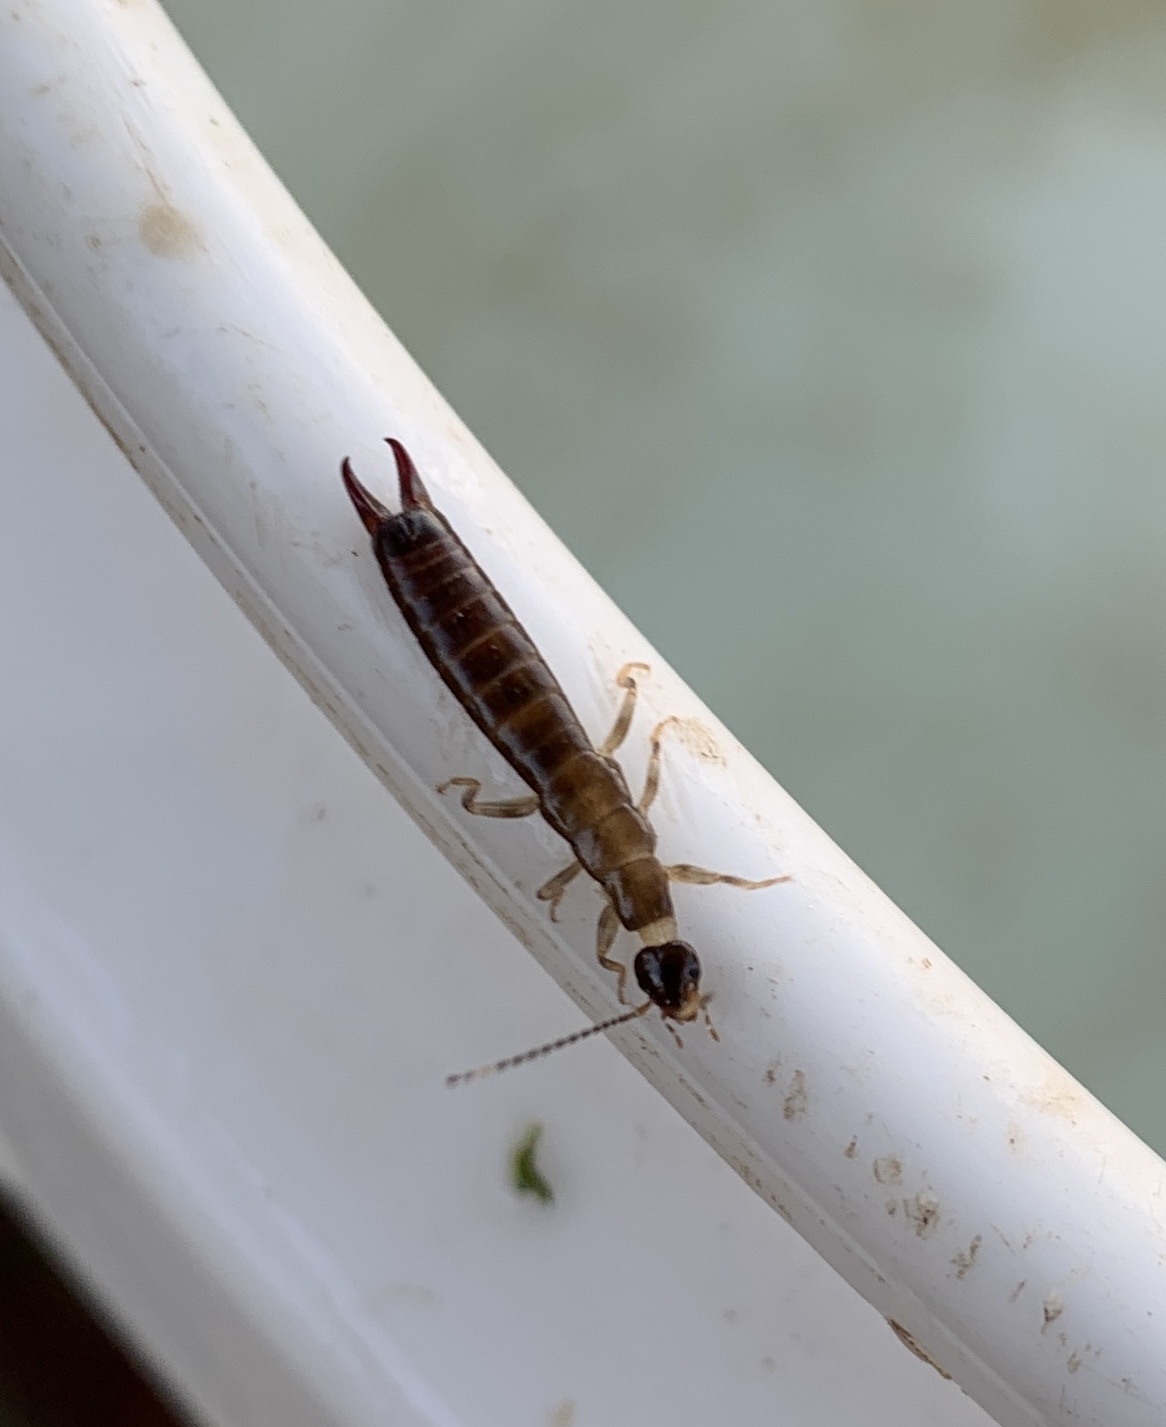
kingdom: Animalia
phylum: Arthropoda
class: Insecta
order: Dermaptera
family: Anisolabididae
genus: Euborellia
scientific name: Euborellia annulipes
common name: Ringlegged earwig
